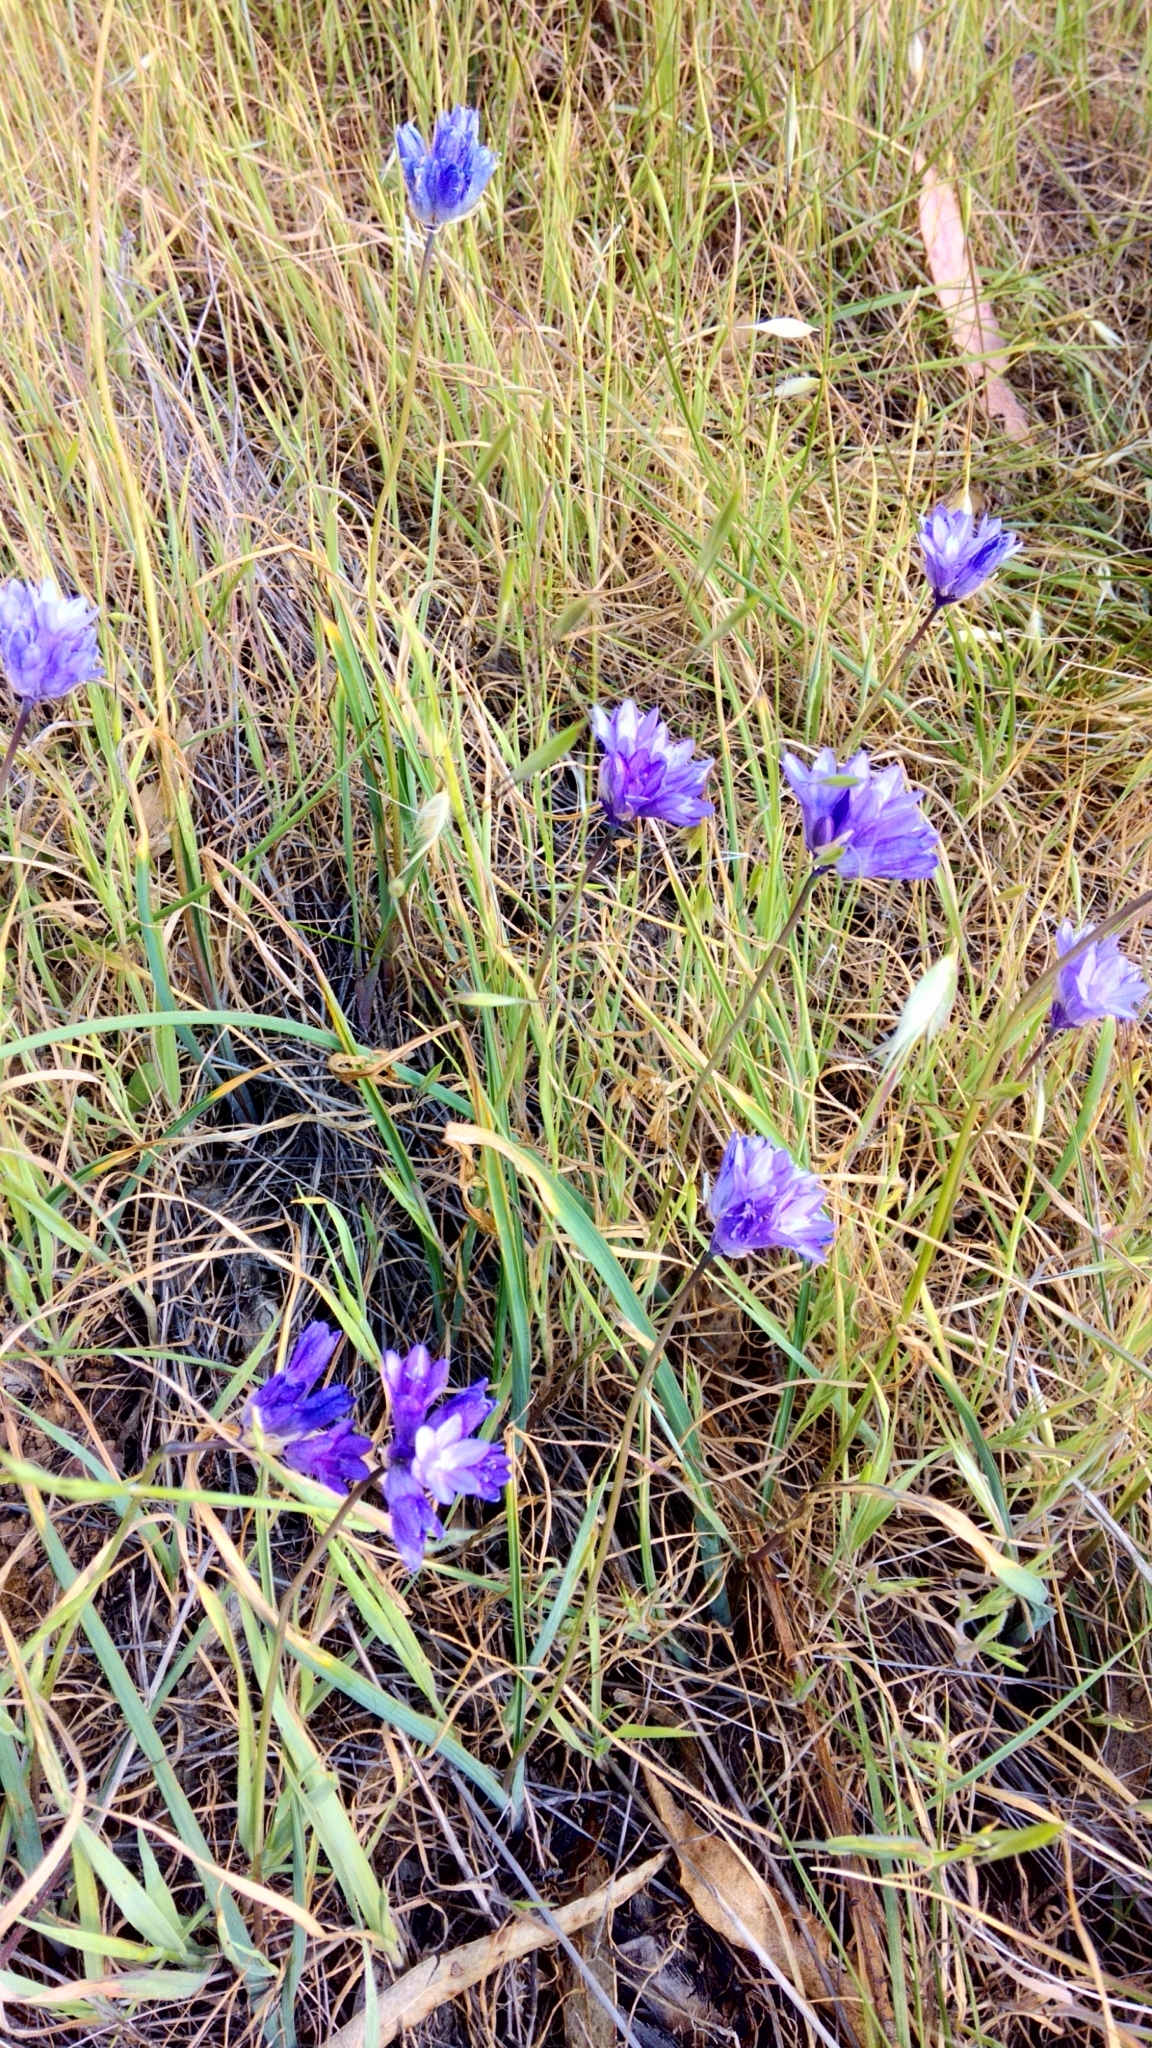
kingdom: Plantae
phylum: Tracheophyta
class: Liliopsida
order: Asparagales
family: Asparagaceae
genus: Dipterostemon
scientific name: Dipterostemon capitatus
